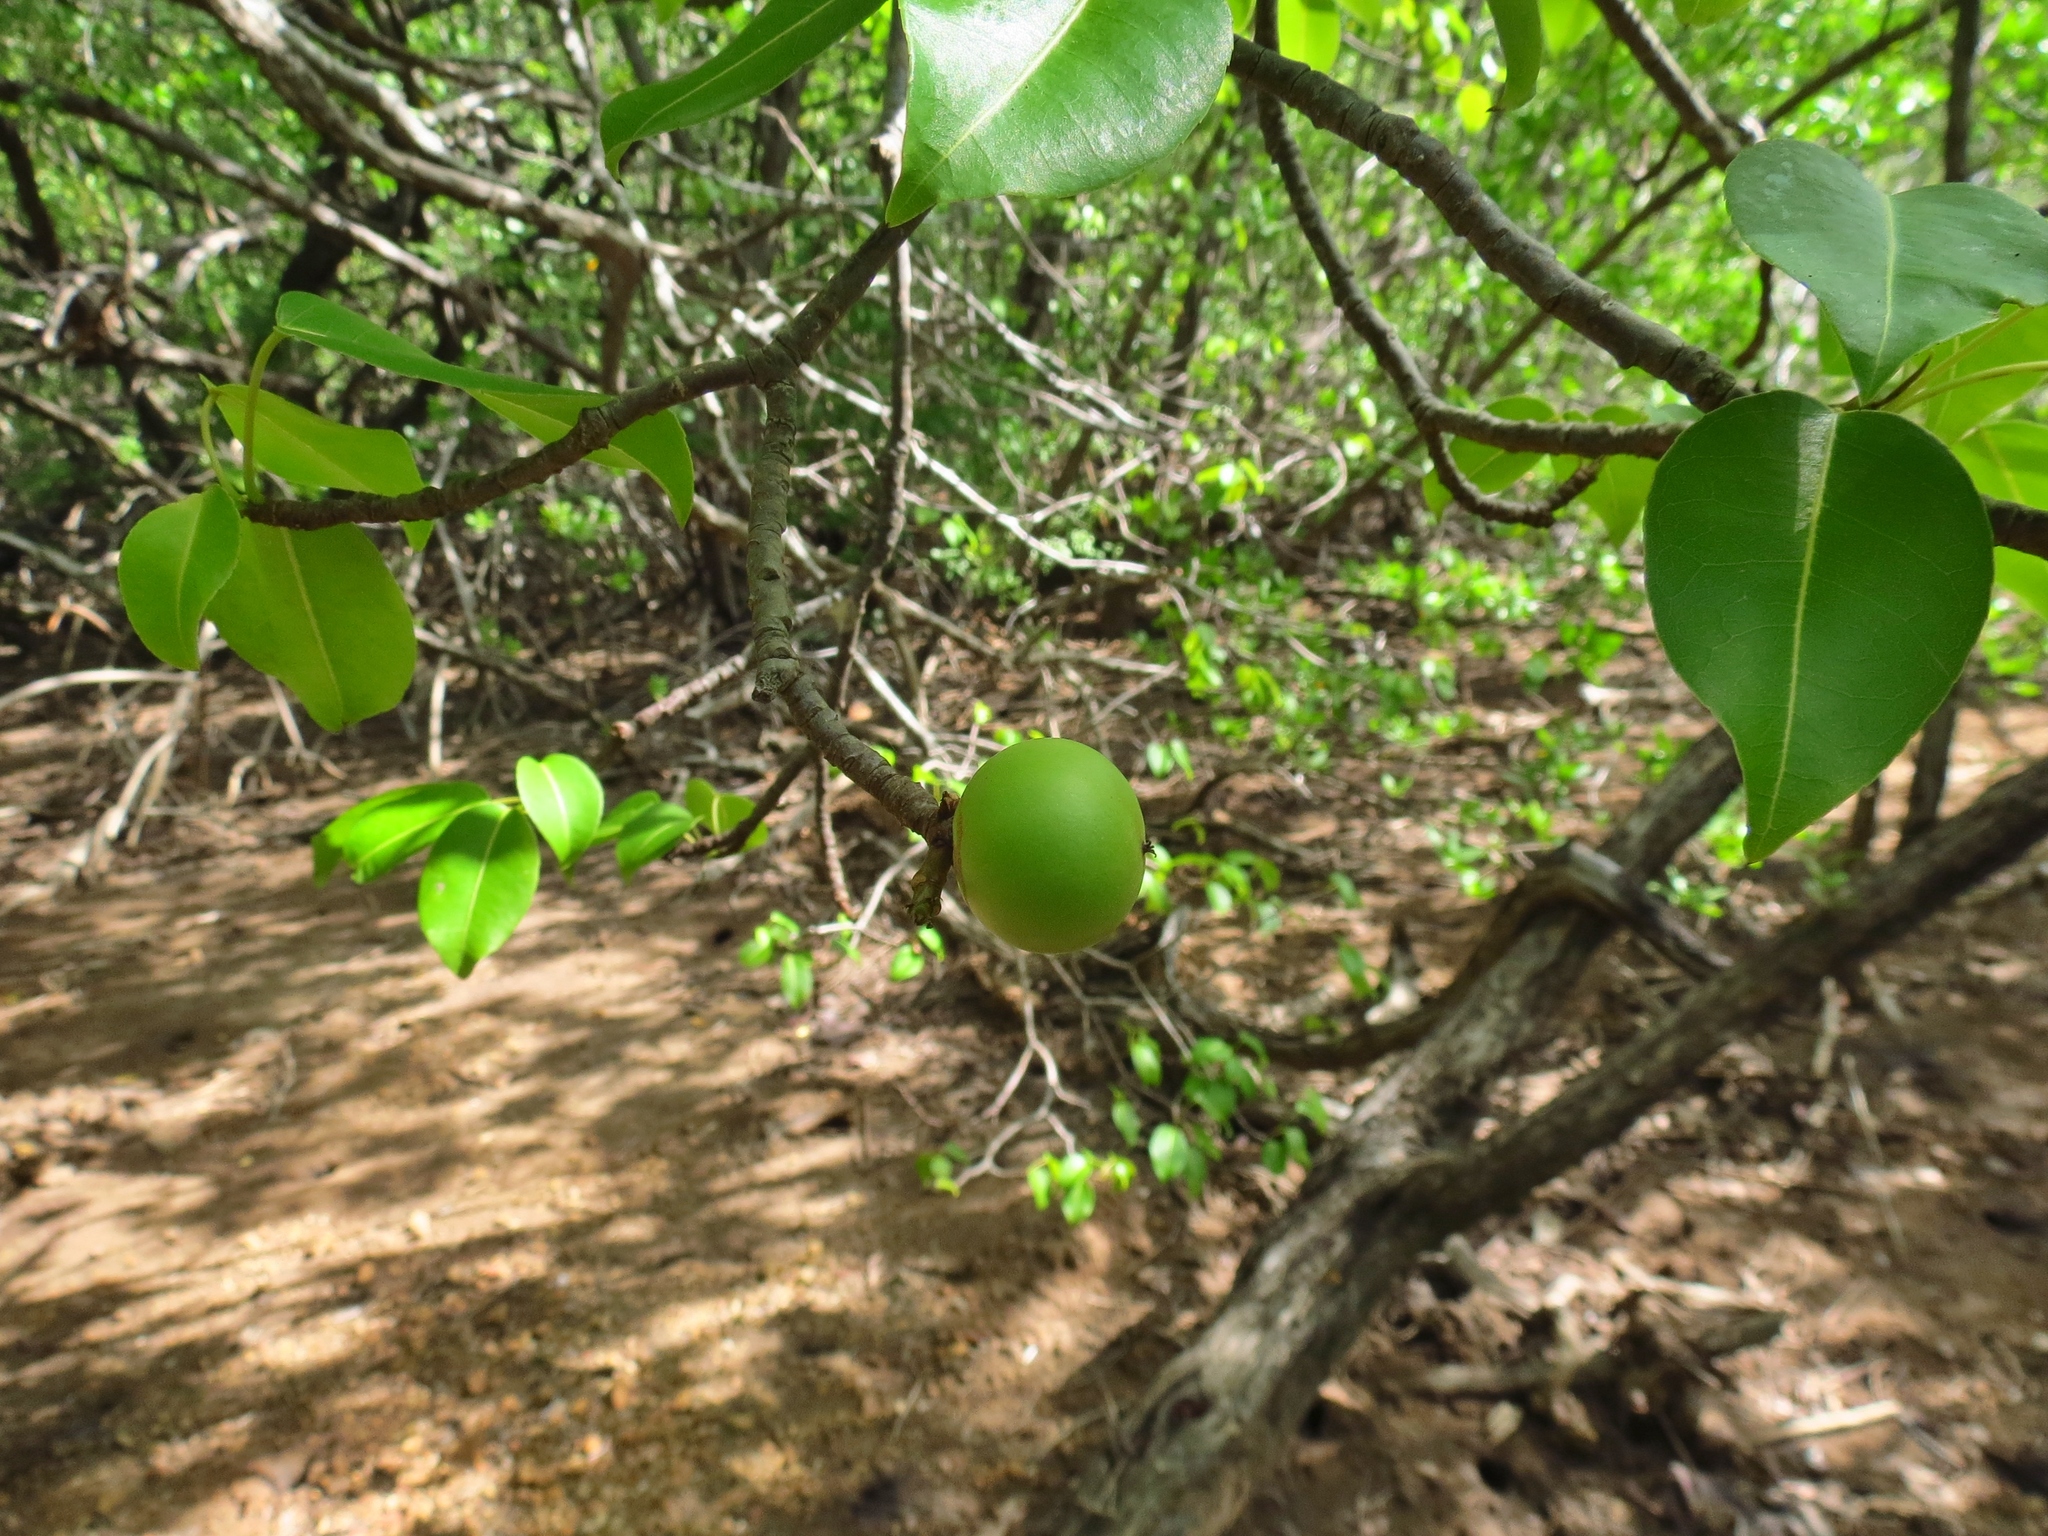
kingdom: Plantae
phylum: Tracheophyta
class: Magnoliopsida
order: Malpighiales
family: Euphorbiaceae
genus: Hippomane
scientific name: Hippomane mancinella
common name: Manchineel
